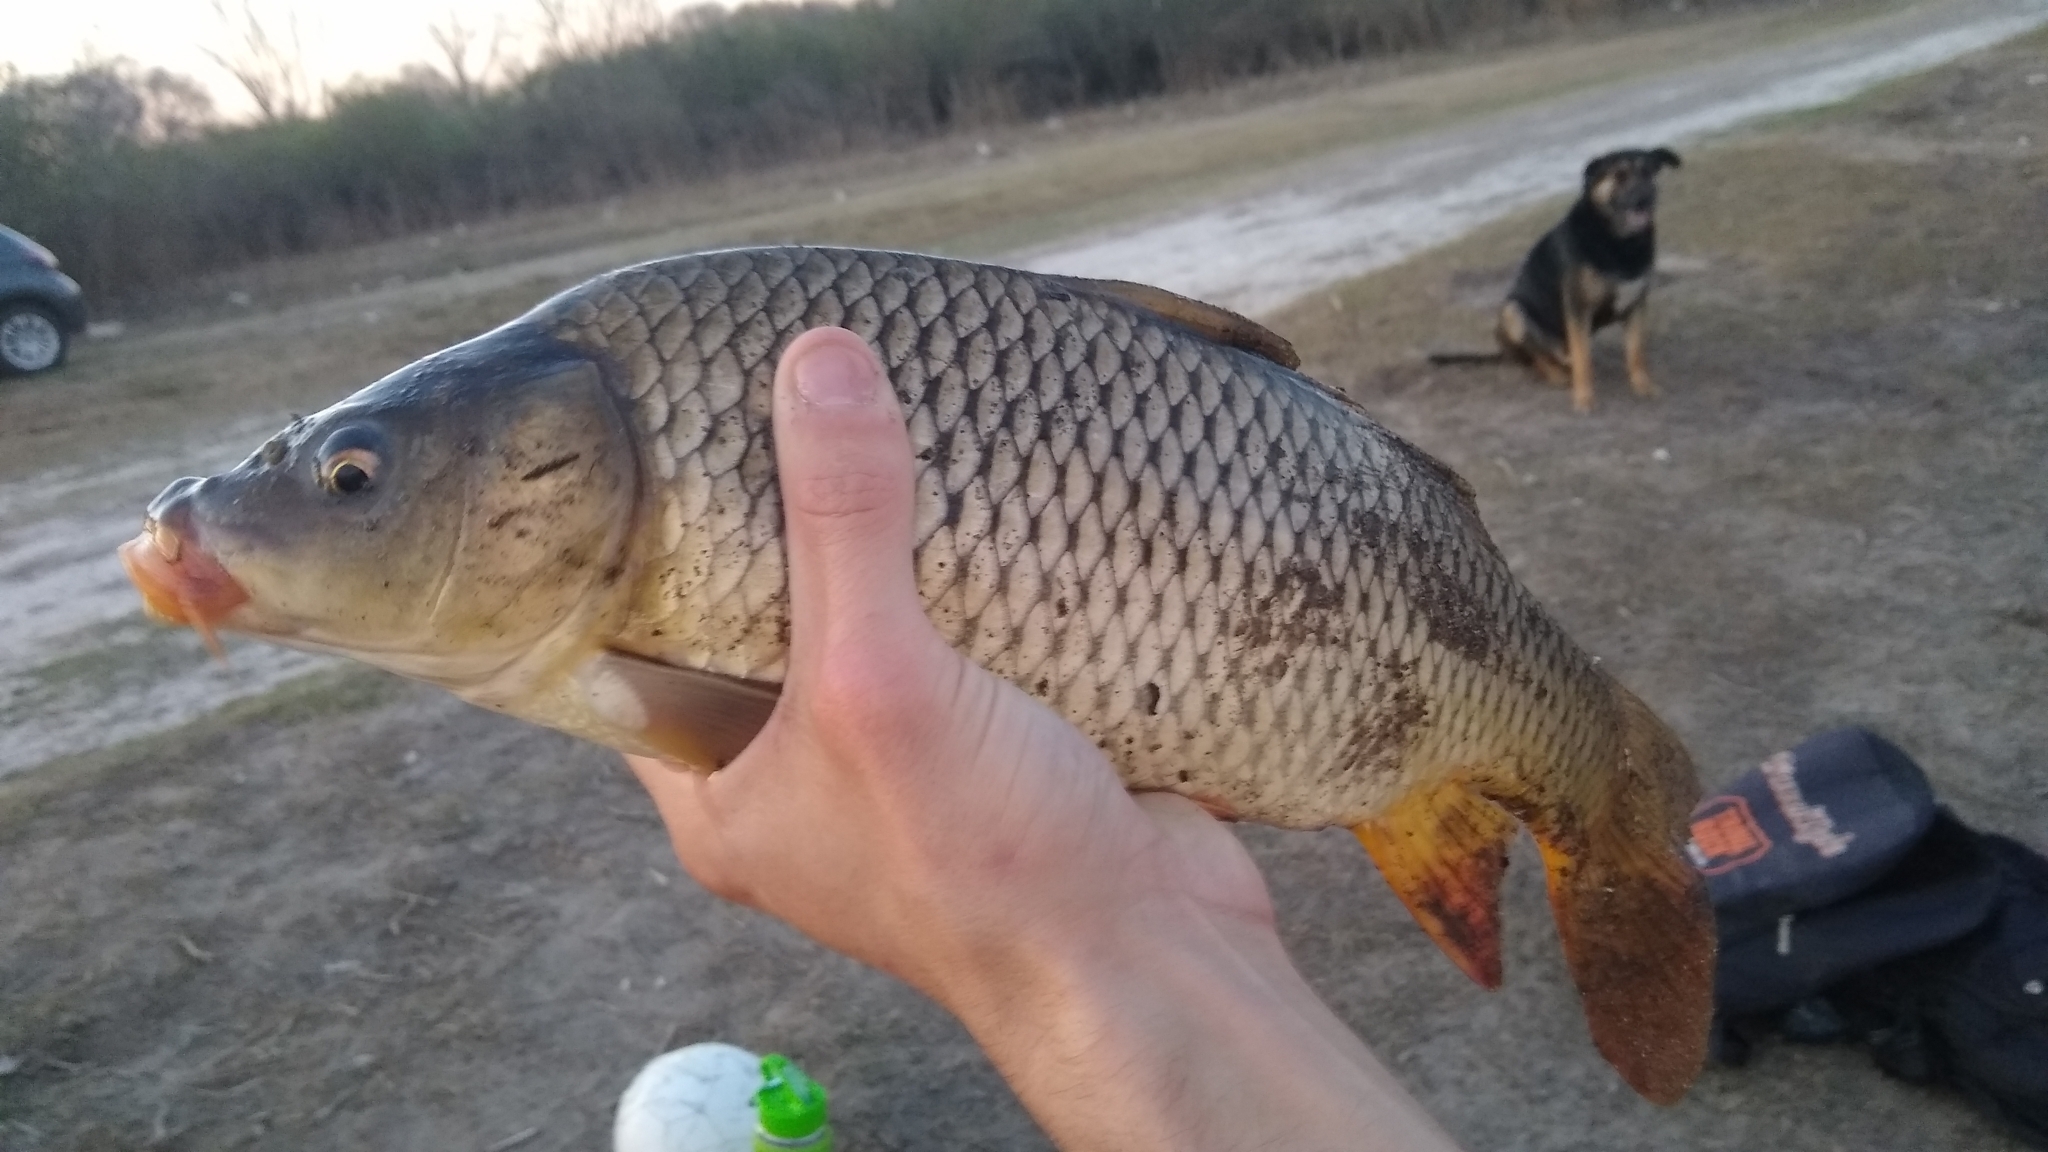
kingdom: Animalia
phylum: Chordata
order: Cypriniformes
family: Cyprinidae
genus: Cyprinus
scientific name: Cyprinus carpio
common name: Common carp
